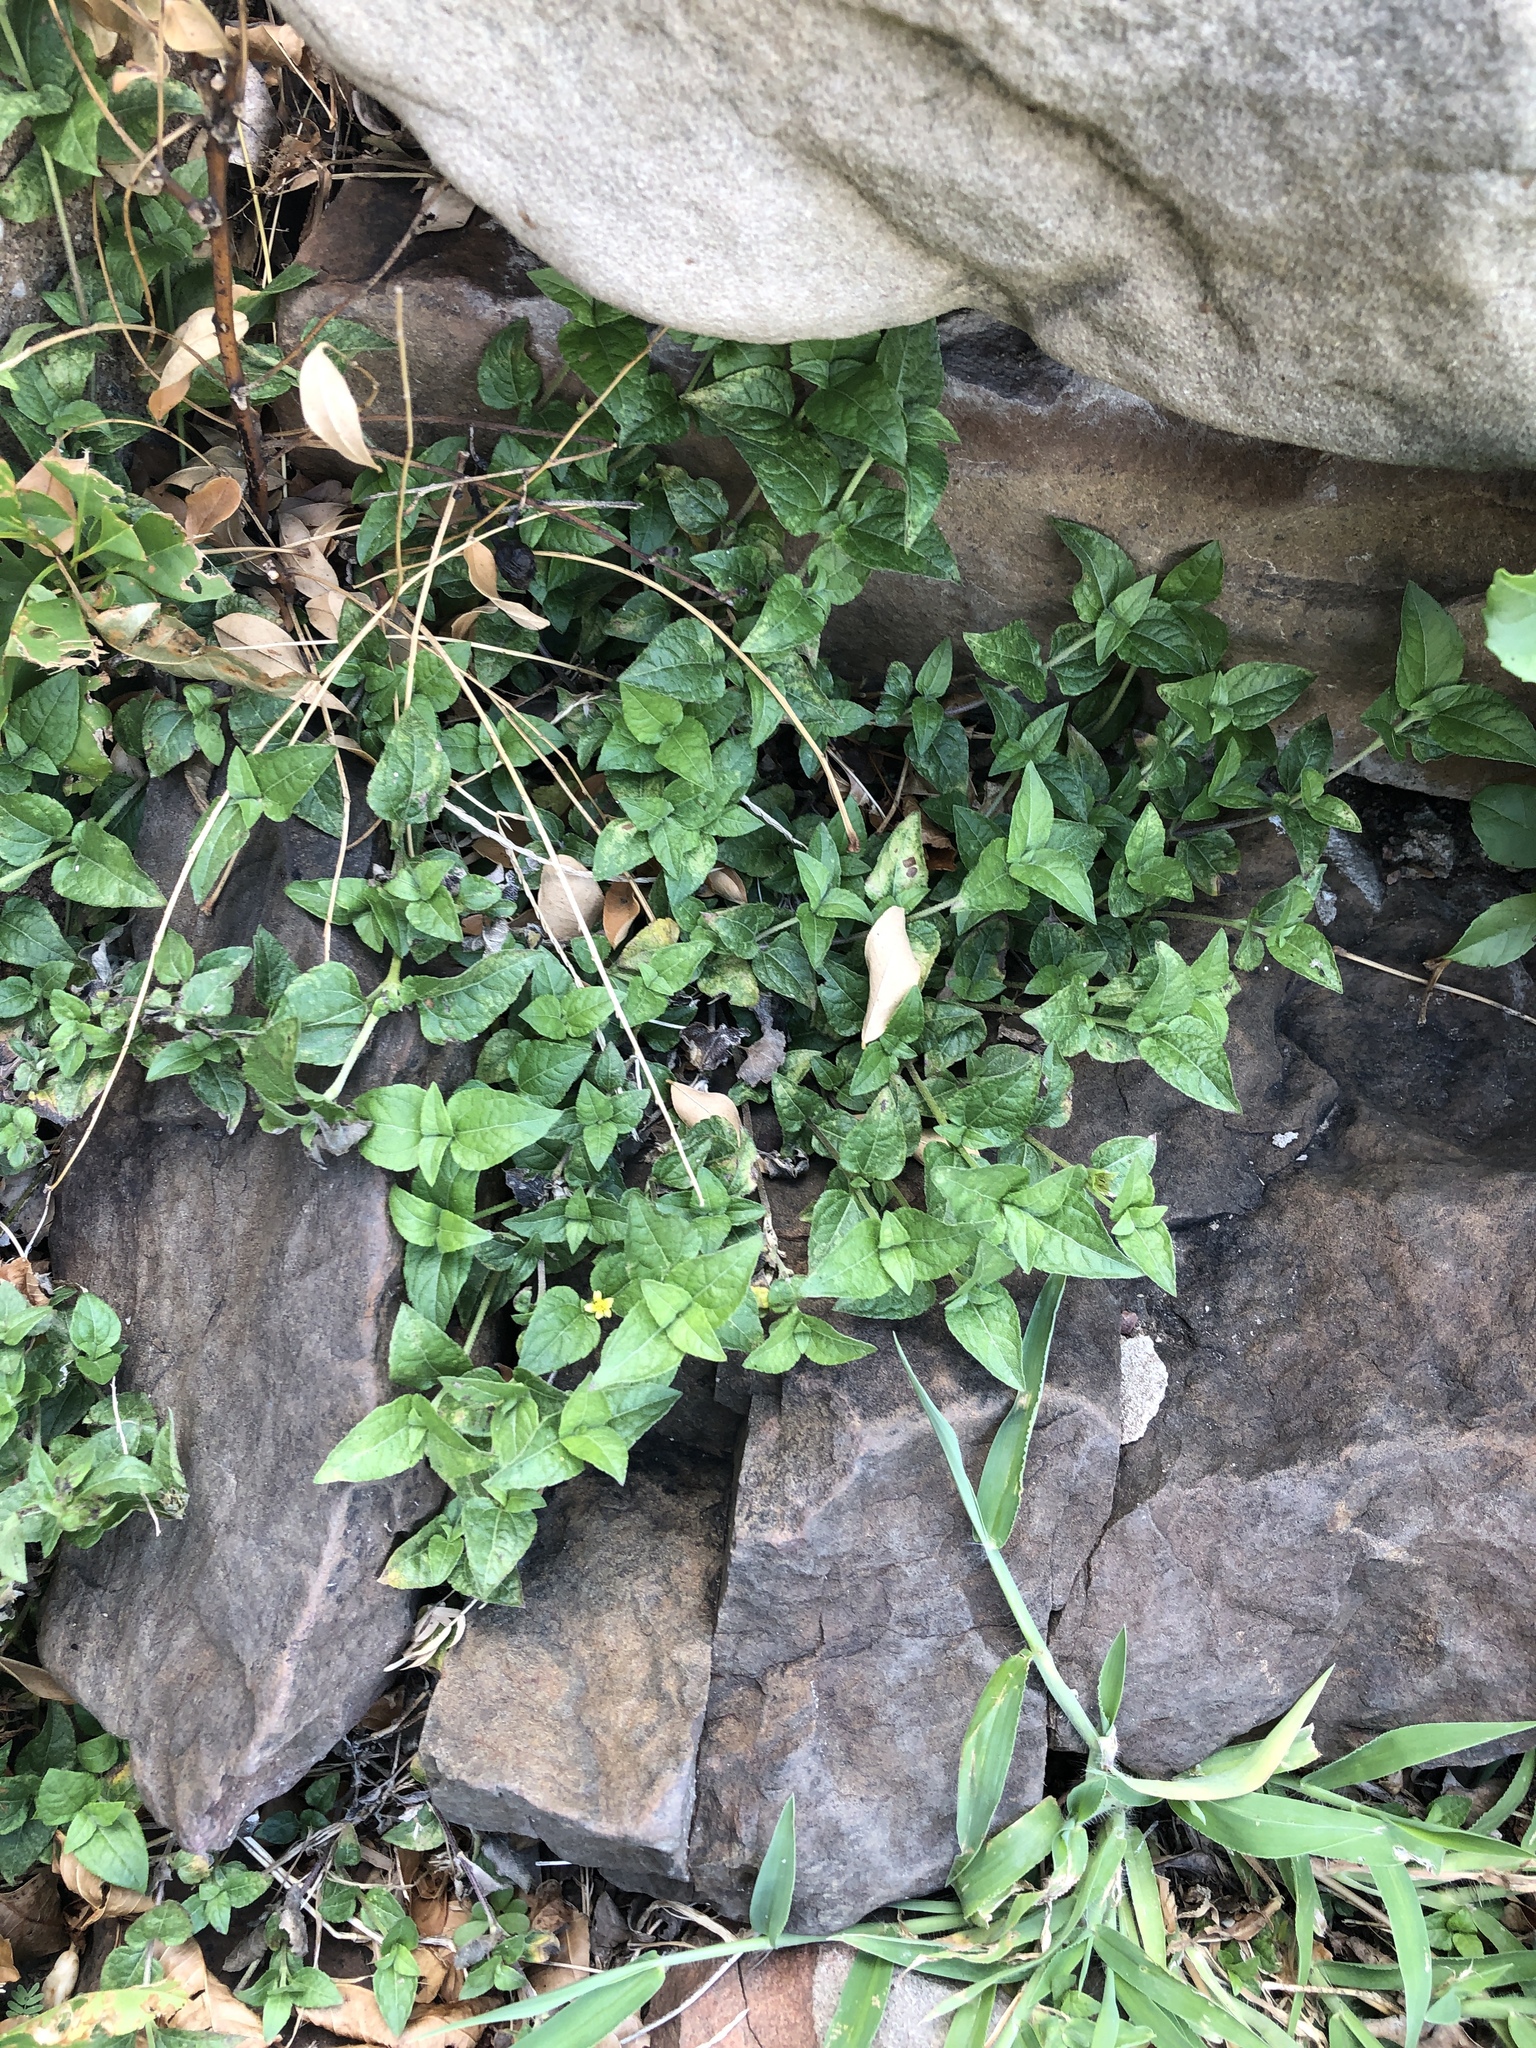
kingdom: Plantae
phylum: Tracheophyta
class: Magnoliopsida
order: Asterales
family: Asteraceae
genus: Calyptocarpus
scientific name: Calyptocarpus vialis
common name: Straggler daisy
